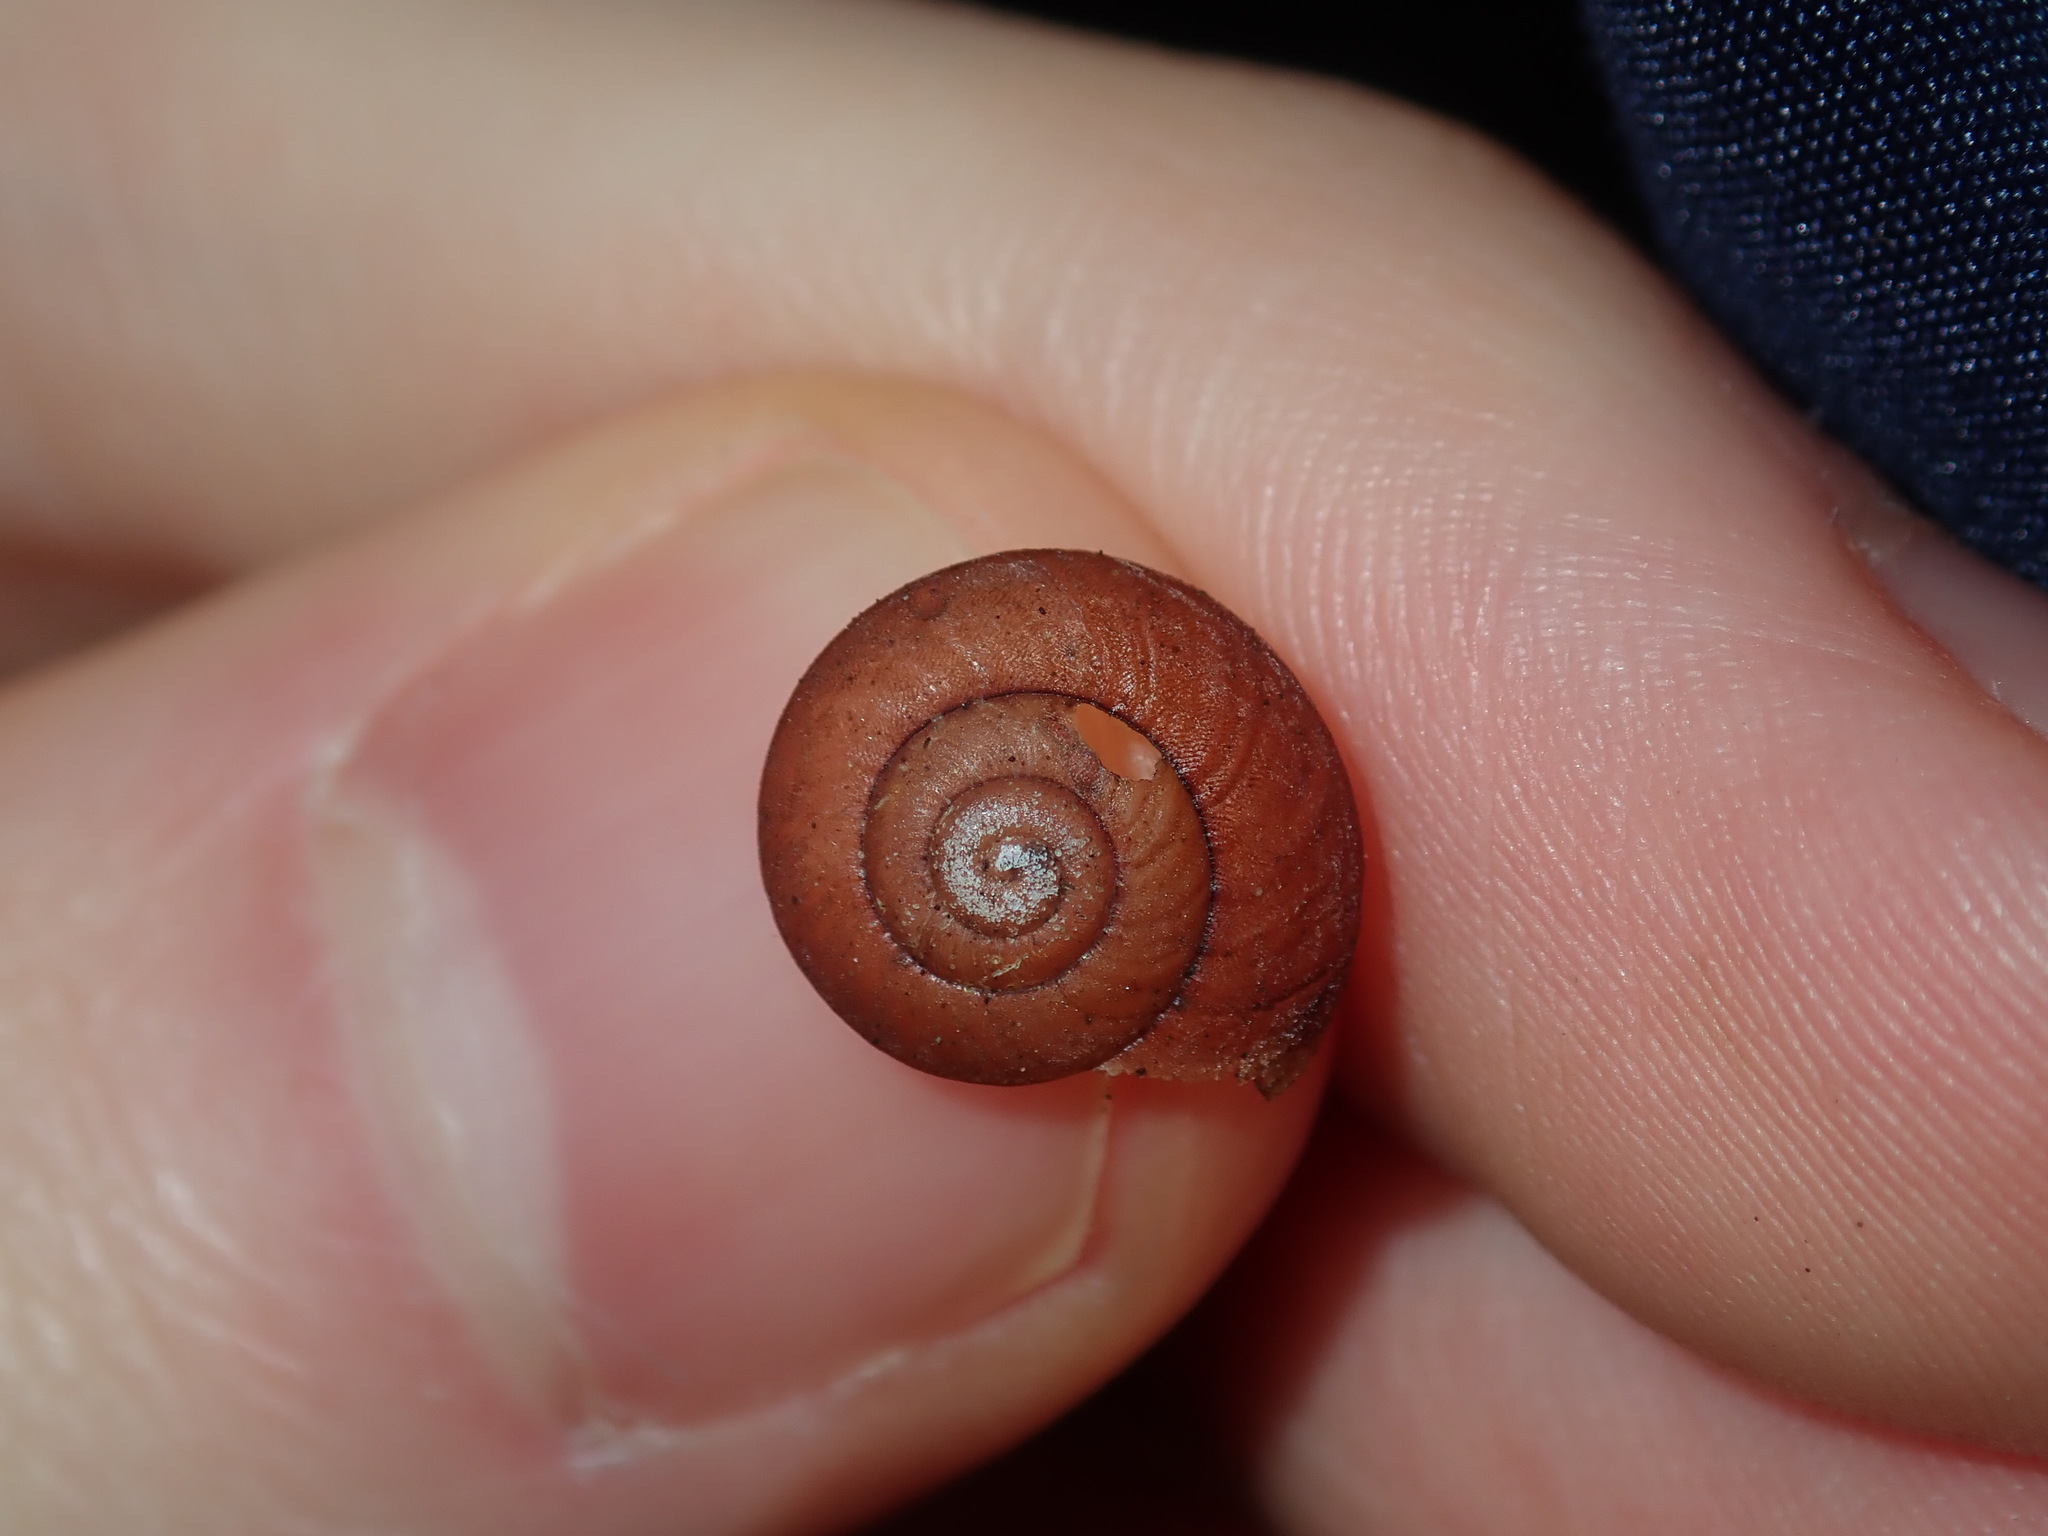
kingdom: Animalia
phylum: Mollusca
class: Gastropoda
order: Stylommatophora
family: Camaenidae
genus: Sauroconcha
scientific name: Sauroconcha sheai
